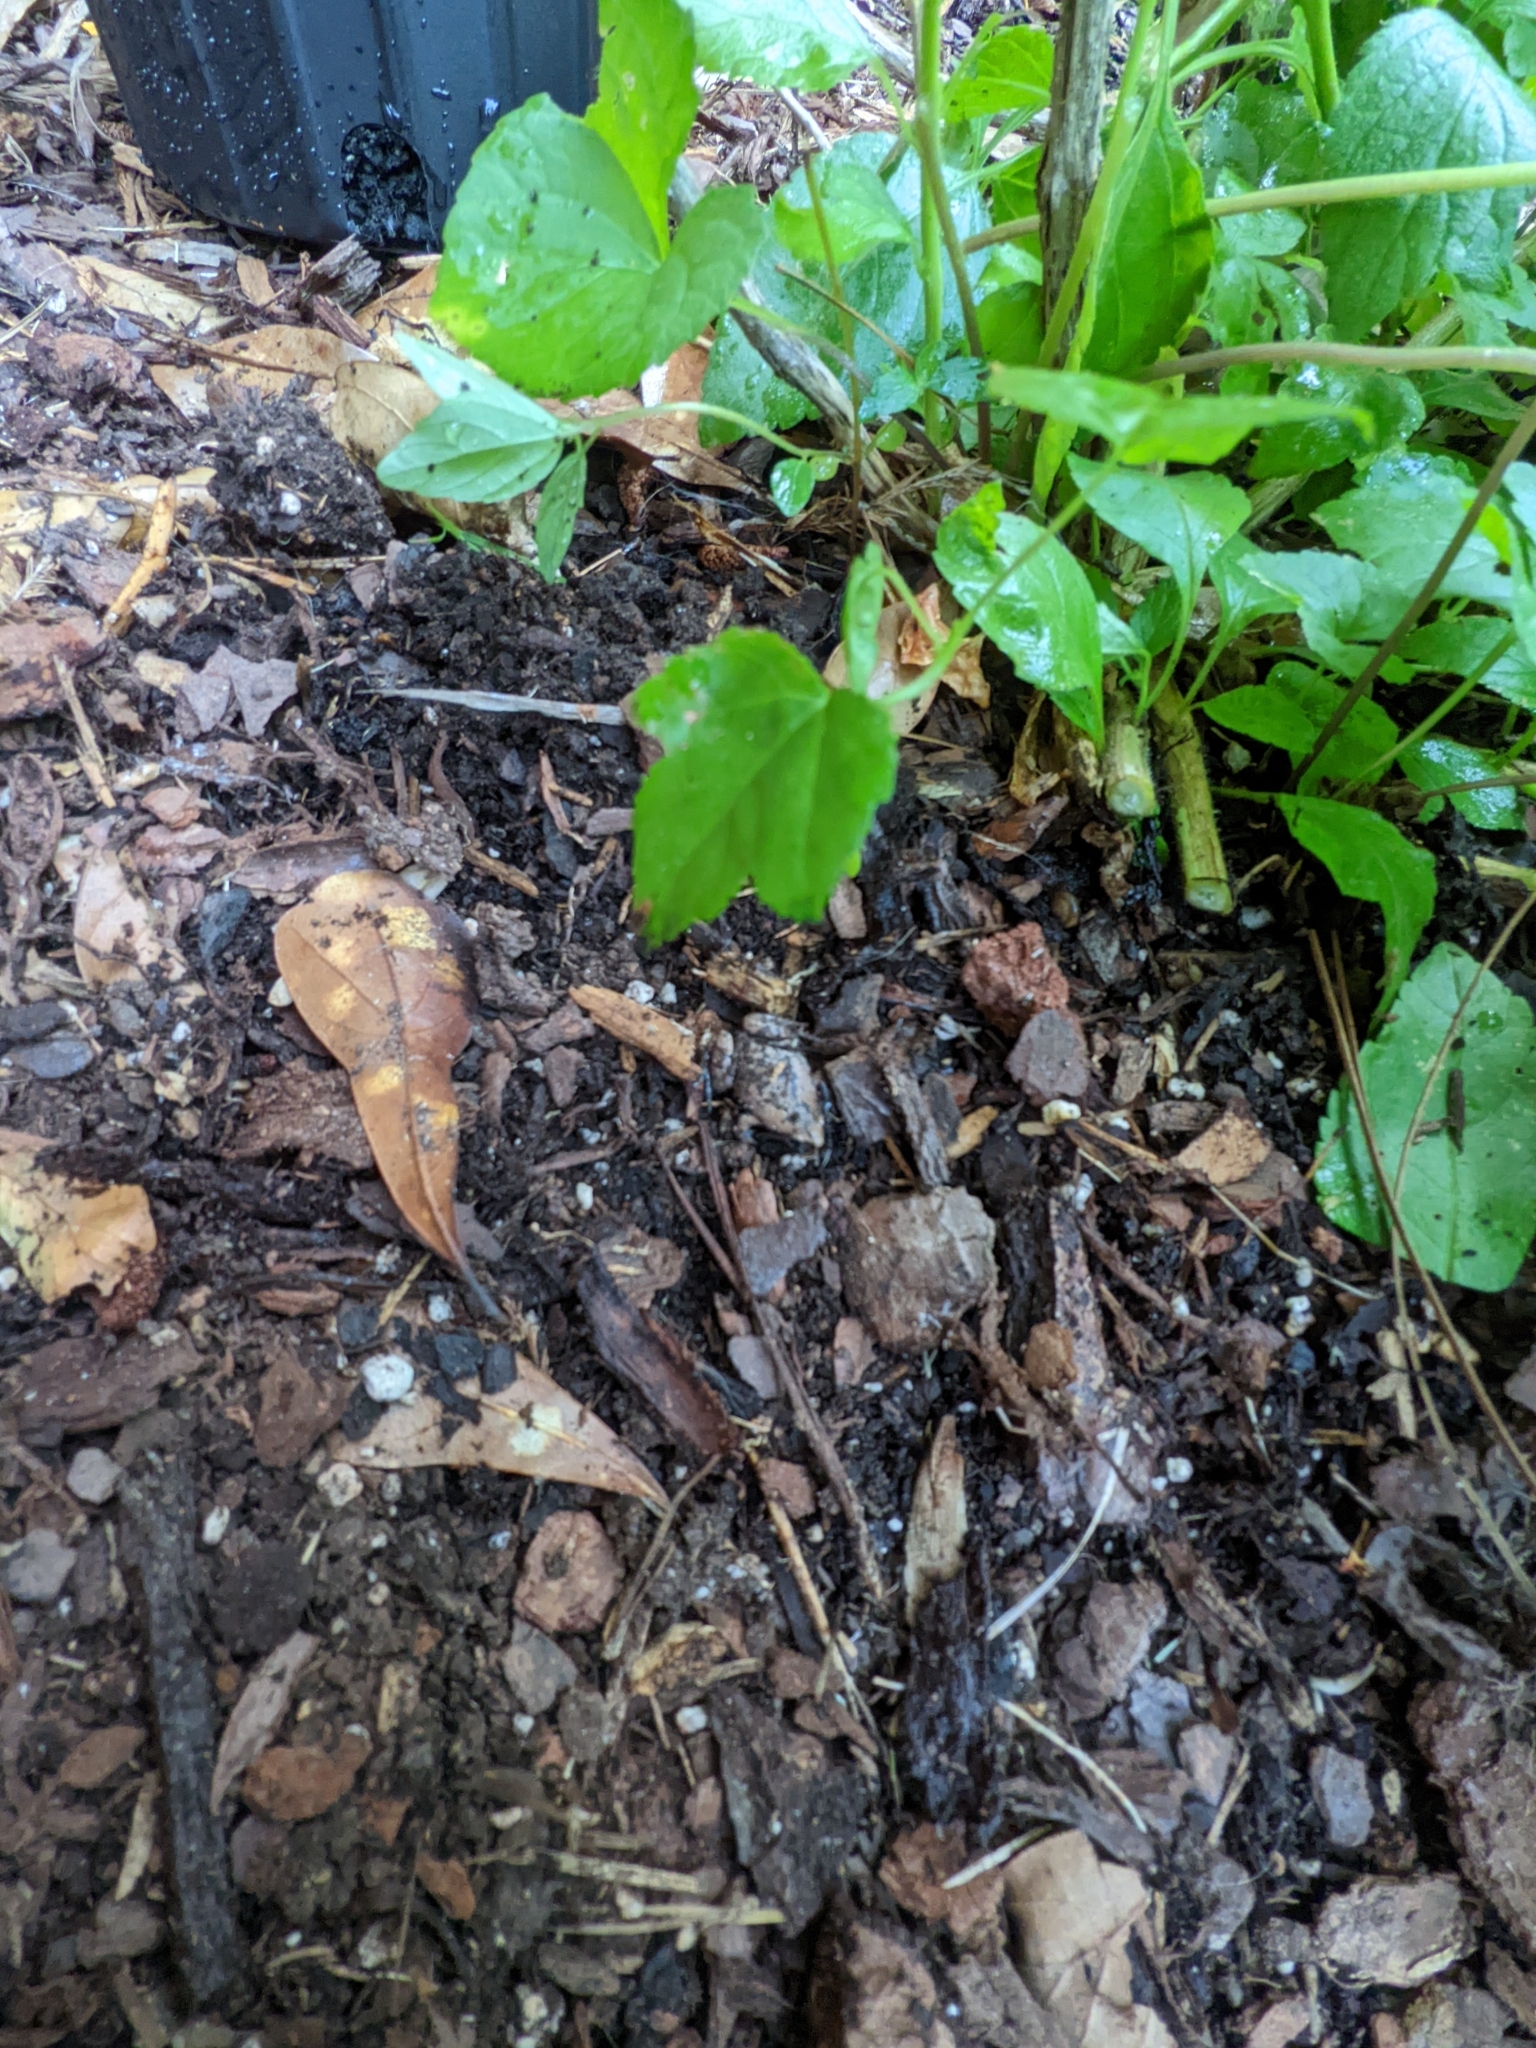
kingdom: Animalia
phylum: Chordata
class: Amphibia
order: Anura
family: Microhylidae
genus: Gastrophryne
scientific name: Gastrophryne carolinensis
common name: Eastern narrowmouth toad
